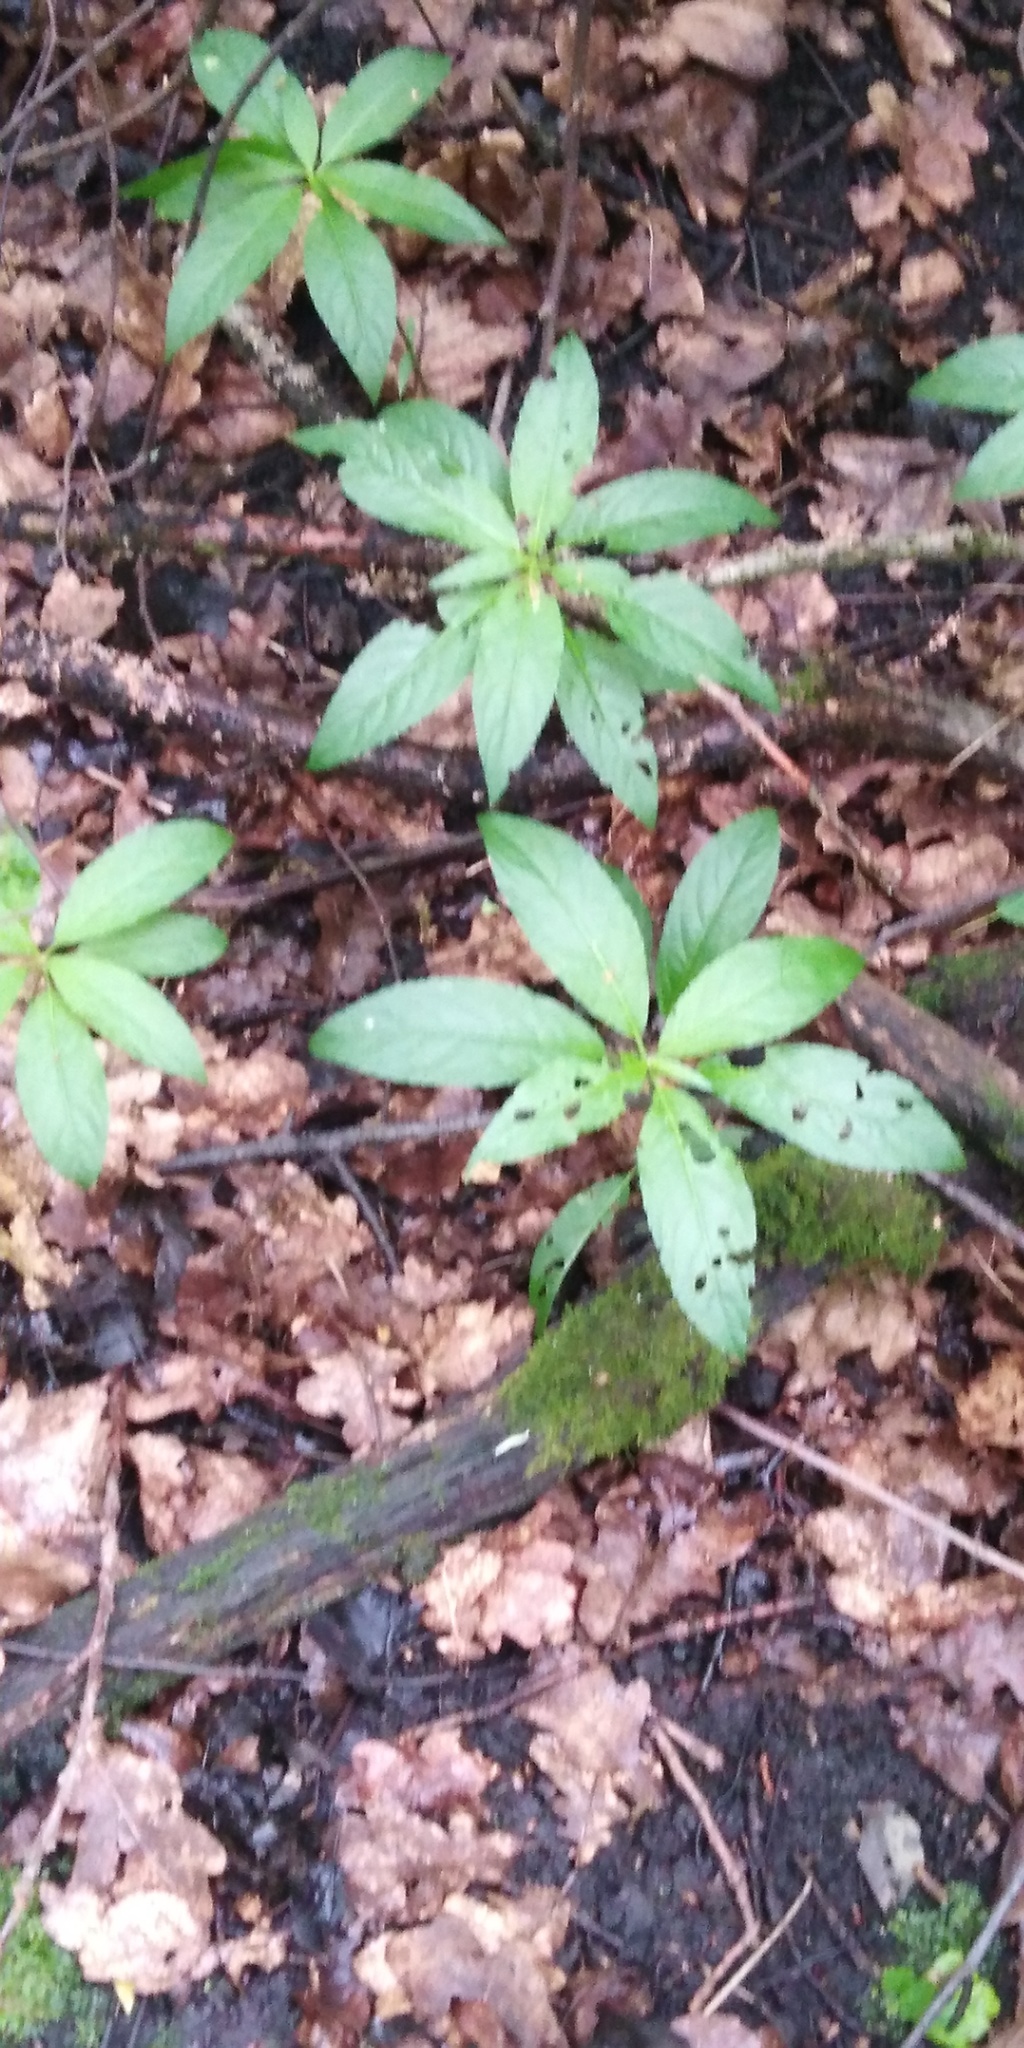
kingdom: Plantae
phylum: Tracheophyta
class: Magnoliopsida
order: Malpighiales
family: Euphorbiaceae
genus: Mercurialis
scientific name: Mercurialis perennis
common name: Dog mercury
